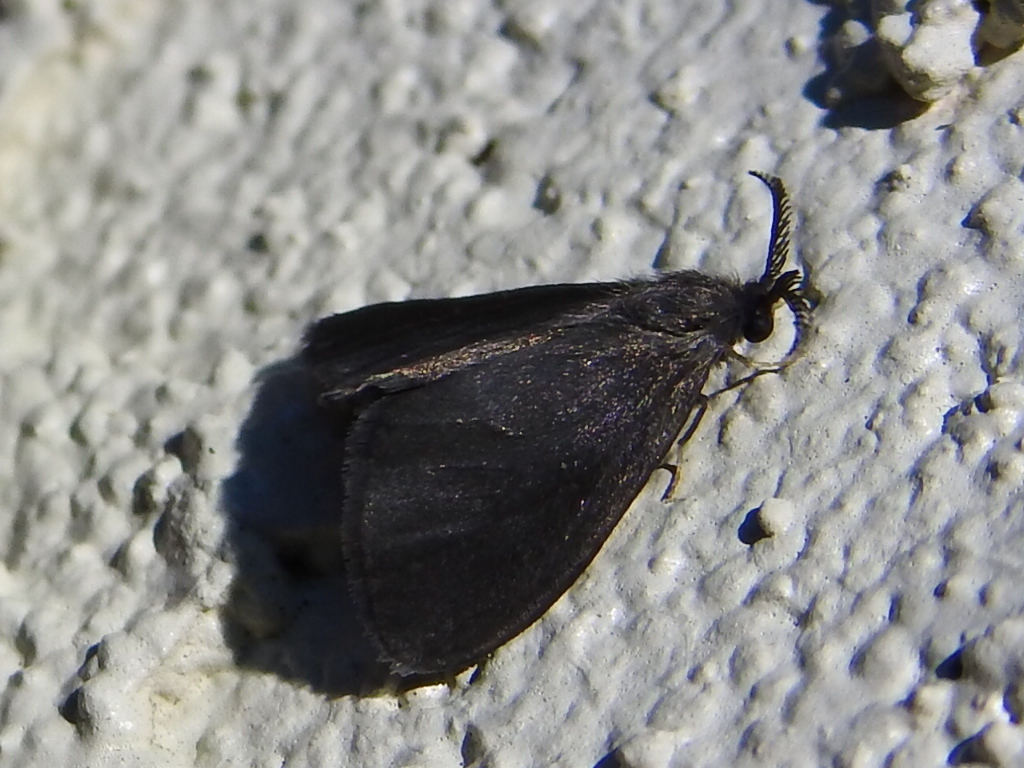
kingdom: Animalia
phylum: Arthropoda
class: Insecta
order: Lepidoptera
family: Psychidae
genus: Cryptothelea
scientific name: Cryptothelea gloverii
